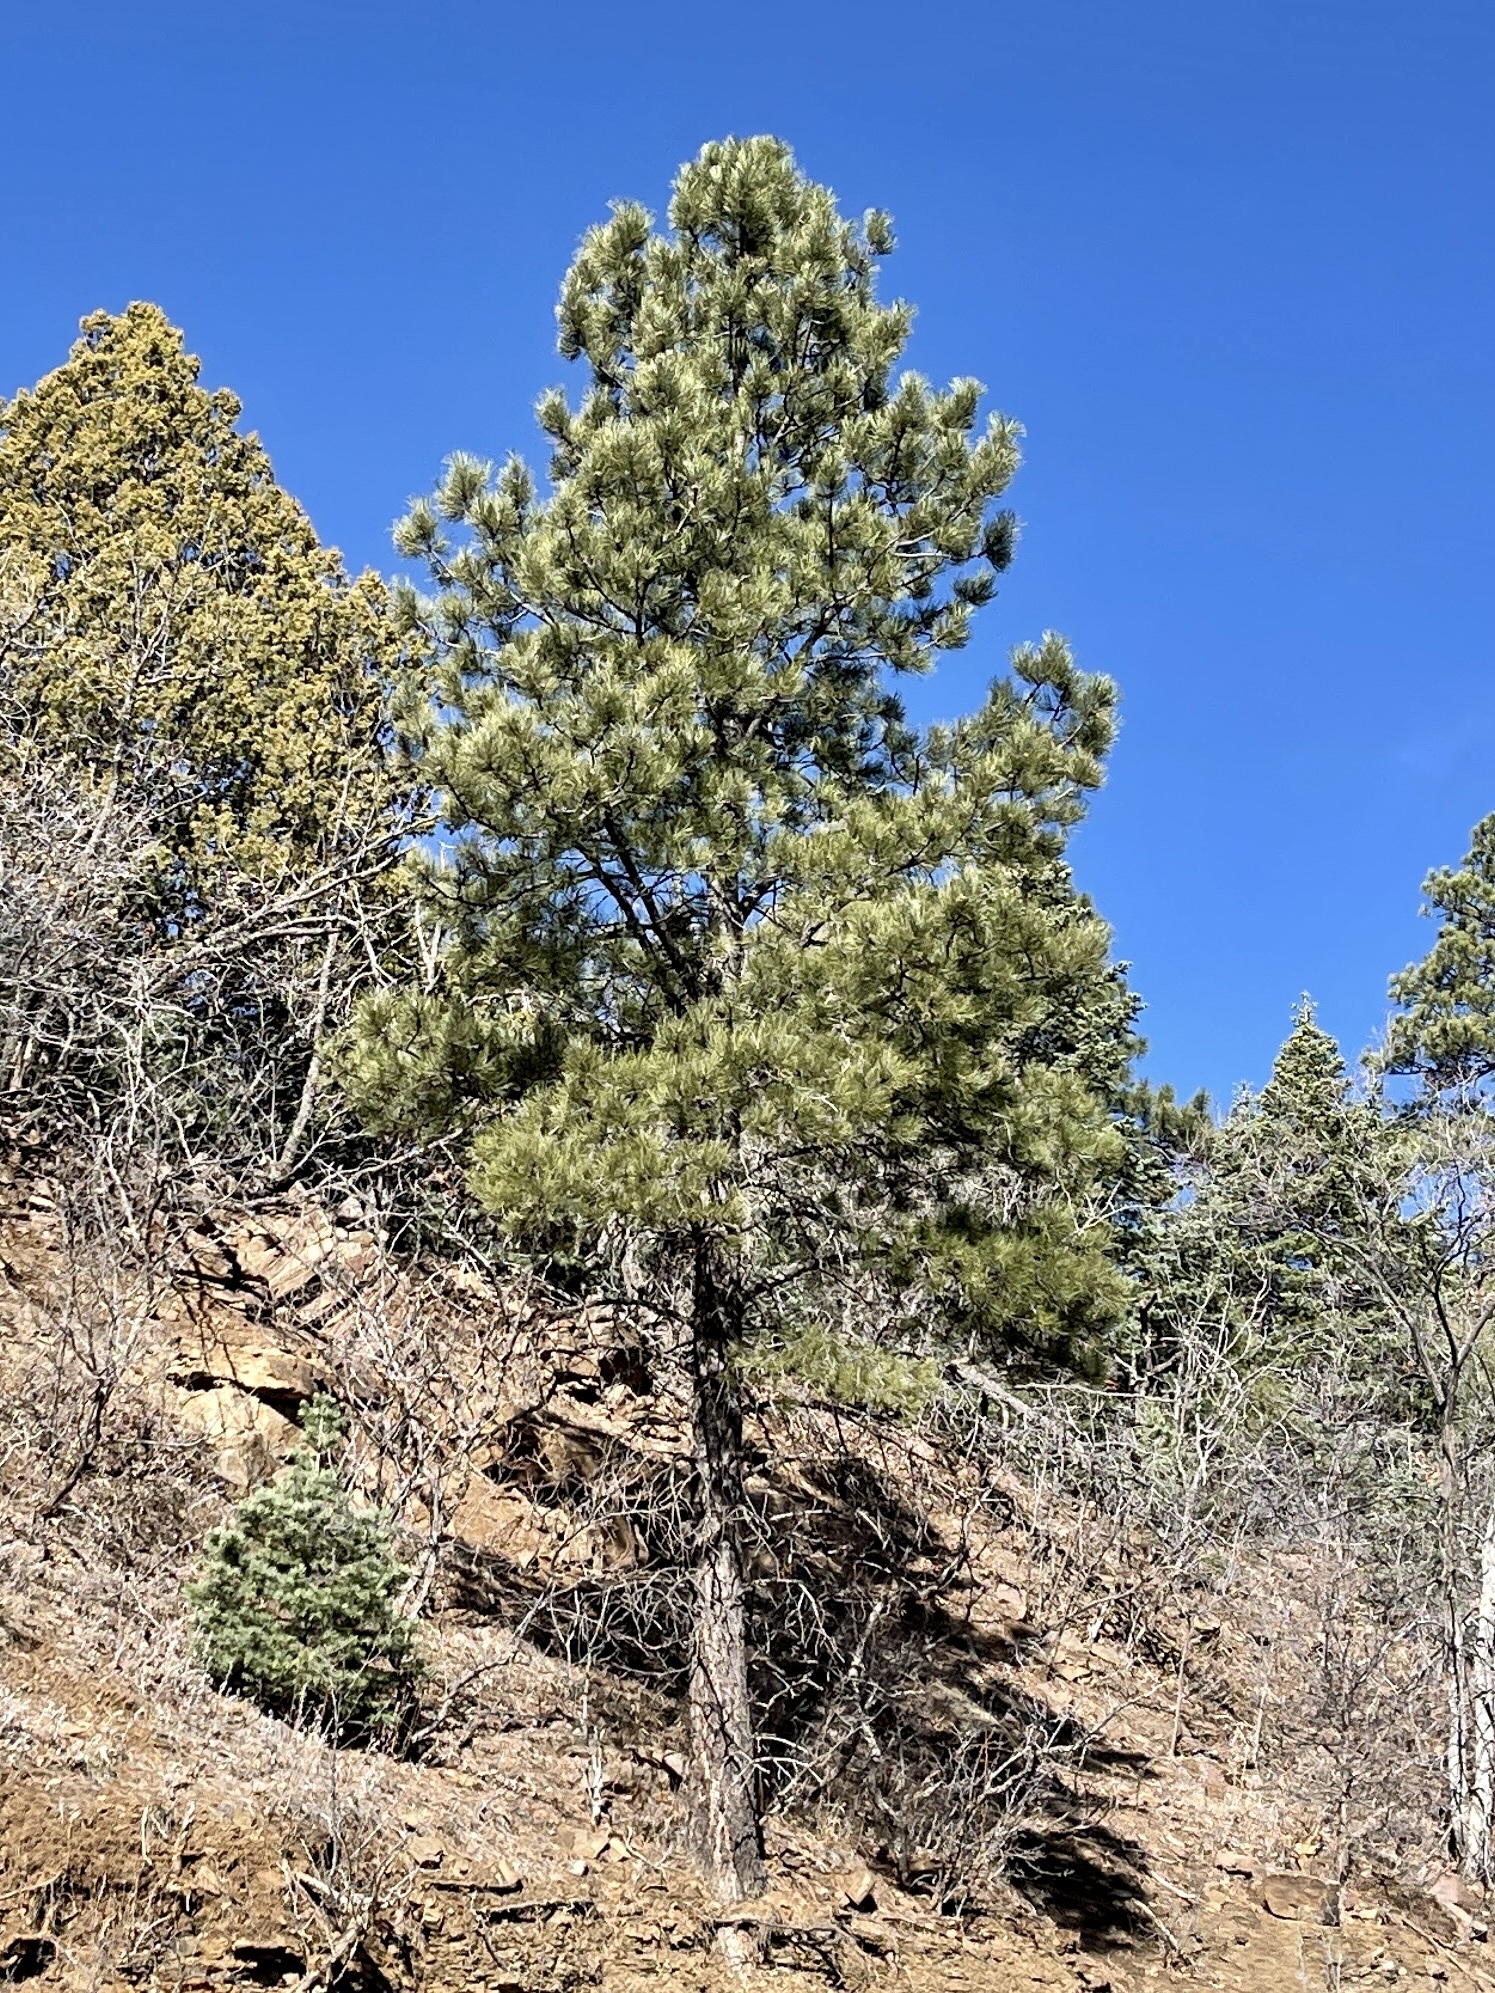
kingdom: Plantae
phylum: Tracheophyta
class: Pinopsida
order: Pinales
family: Pinaceae
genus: Pinus
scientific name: Pinus ponderosa
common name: Western yellow-pine
